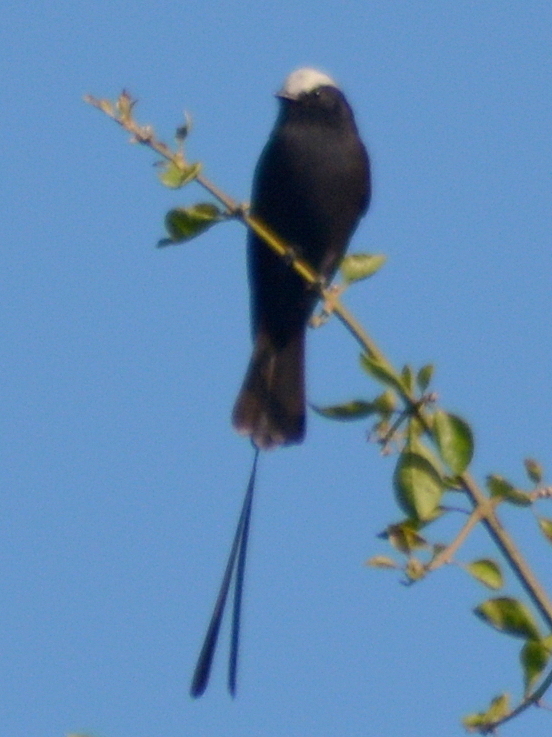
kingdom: Animalia
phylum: Chordata
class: Aves
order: Passeriformes
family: Tyrannidae
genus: Colonia
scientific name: Colonia colonus
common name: Long-tailed tyrant
